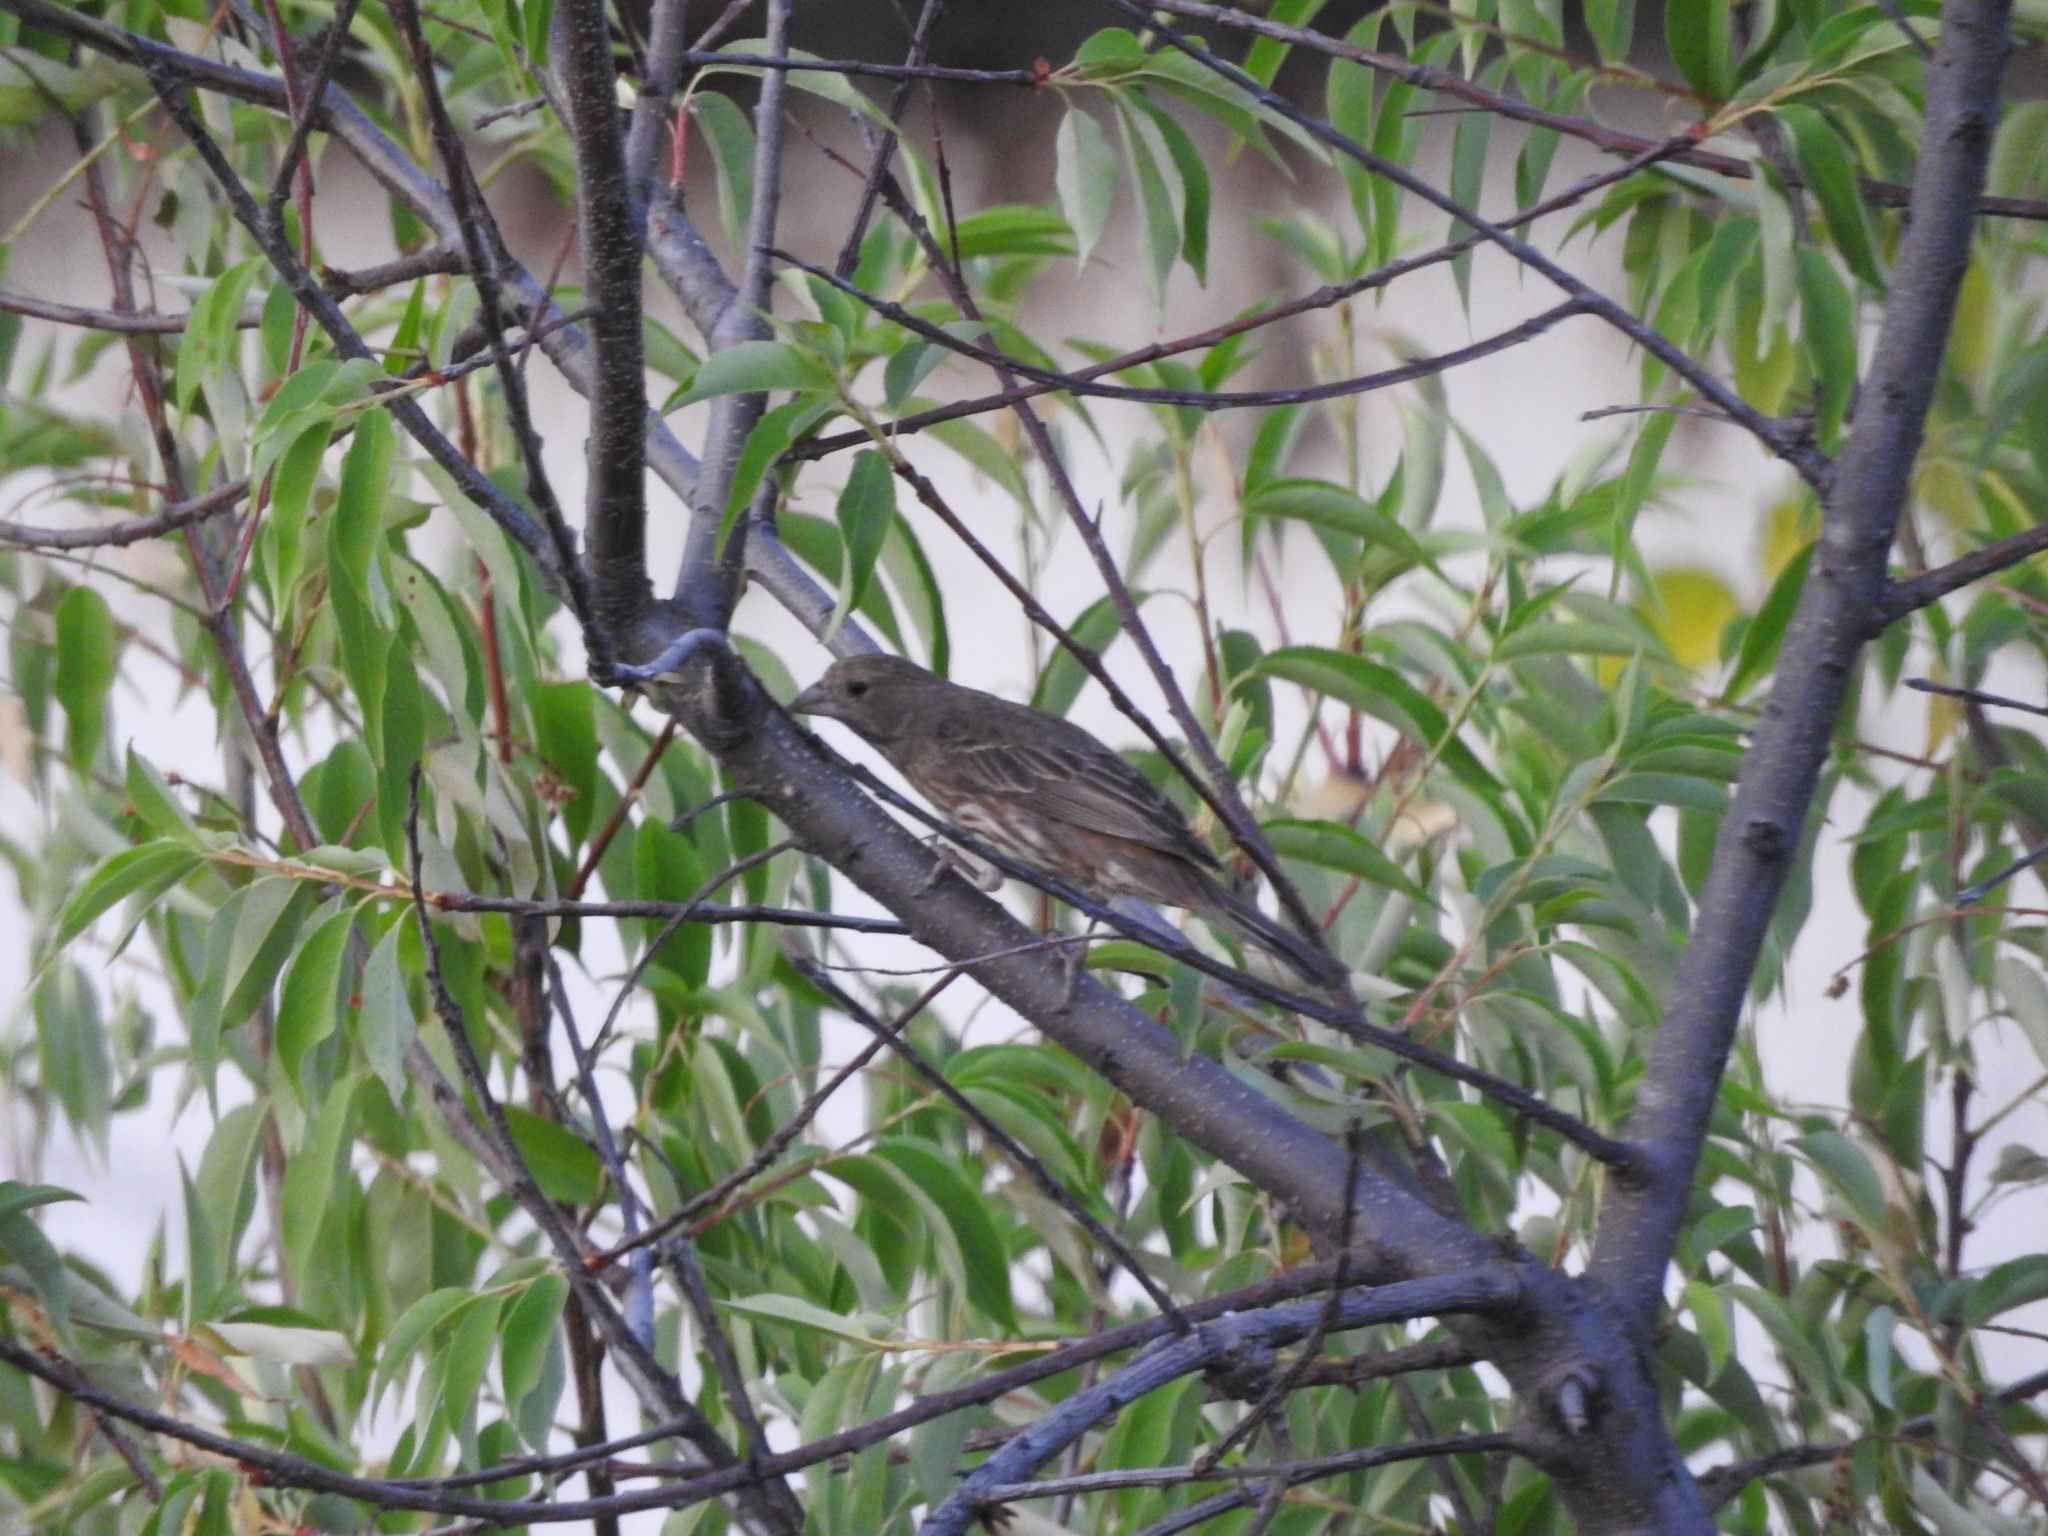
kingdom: Animalia
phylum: Chordata
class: Aves
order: Passeriformes
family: Fringillidae
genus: Haemorhous
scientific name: Haemorhous mexicanus
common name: House finch
